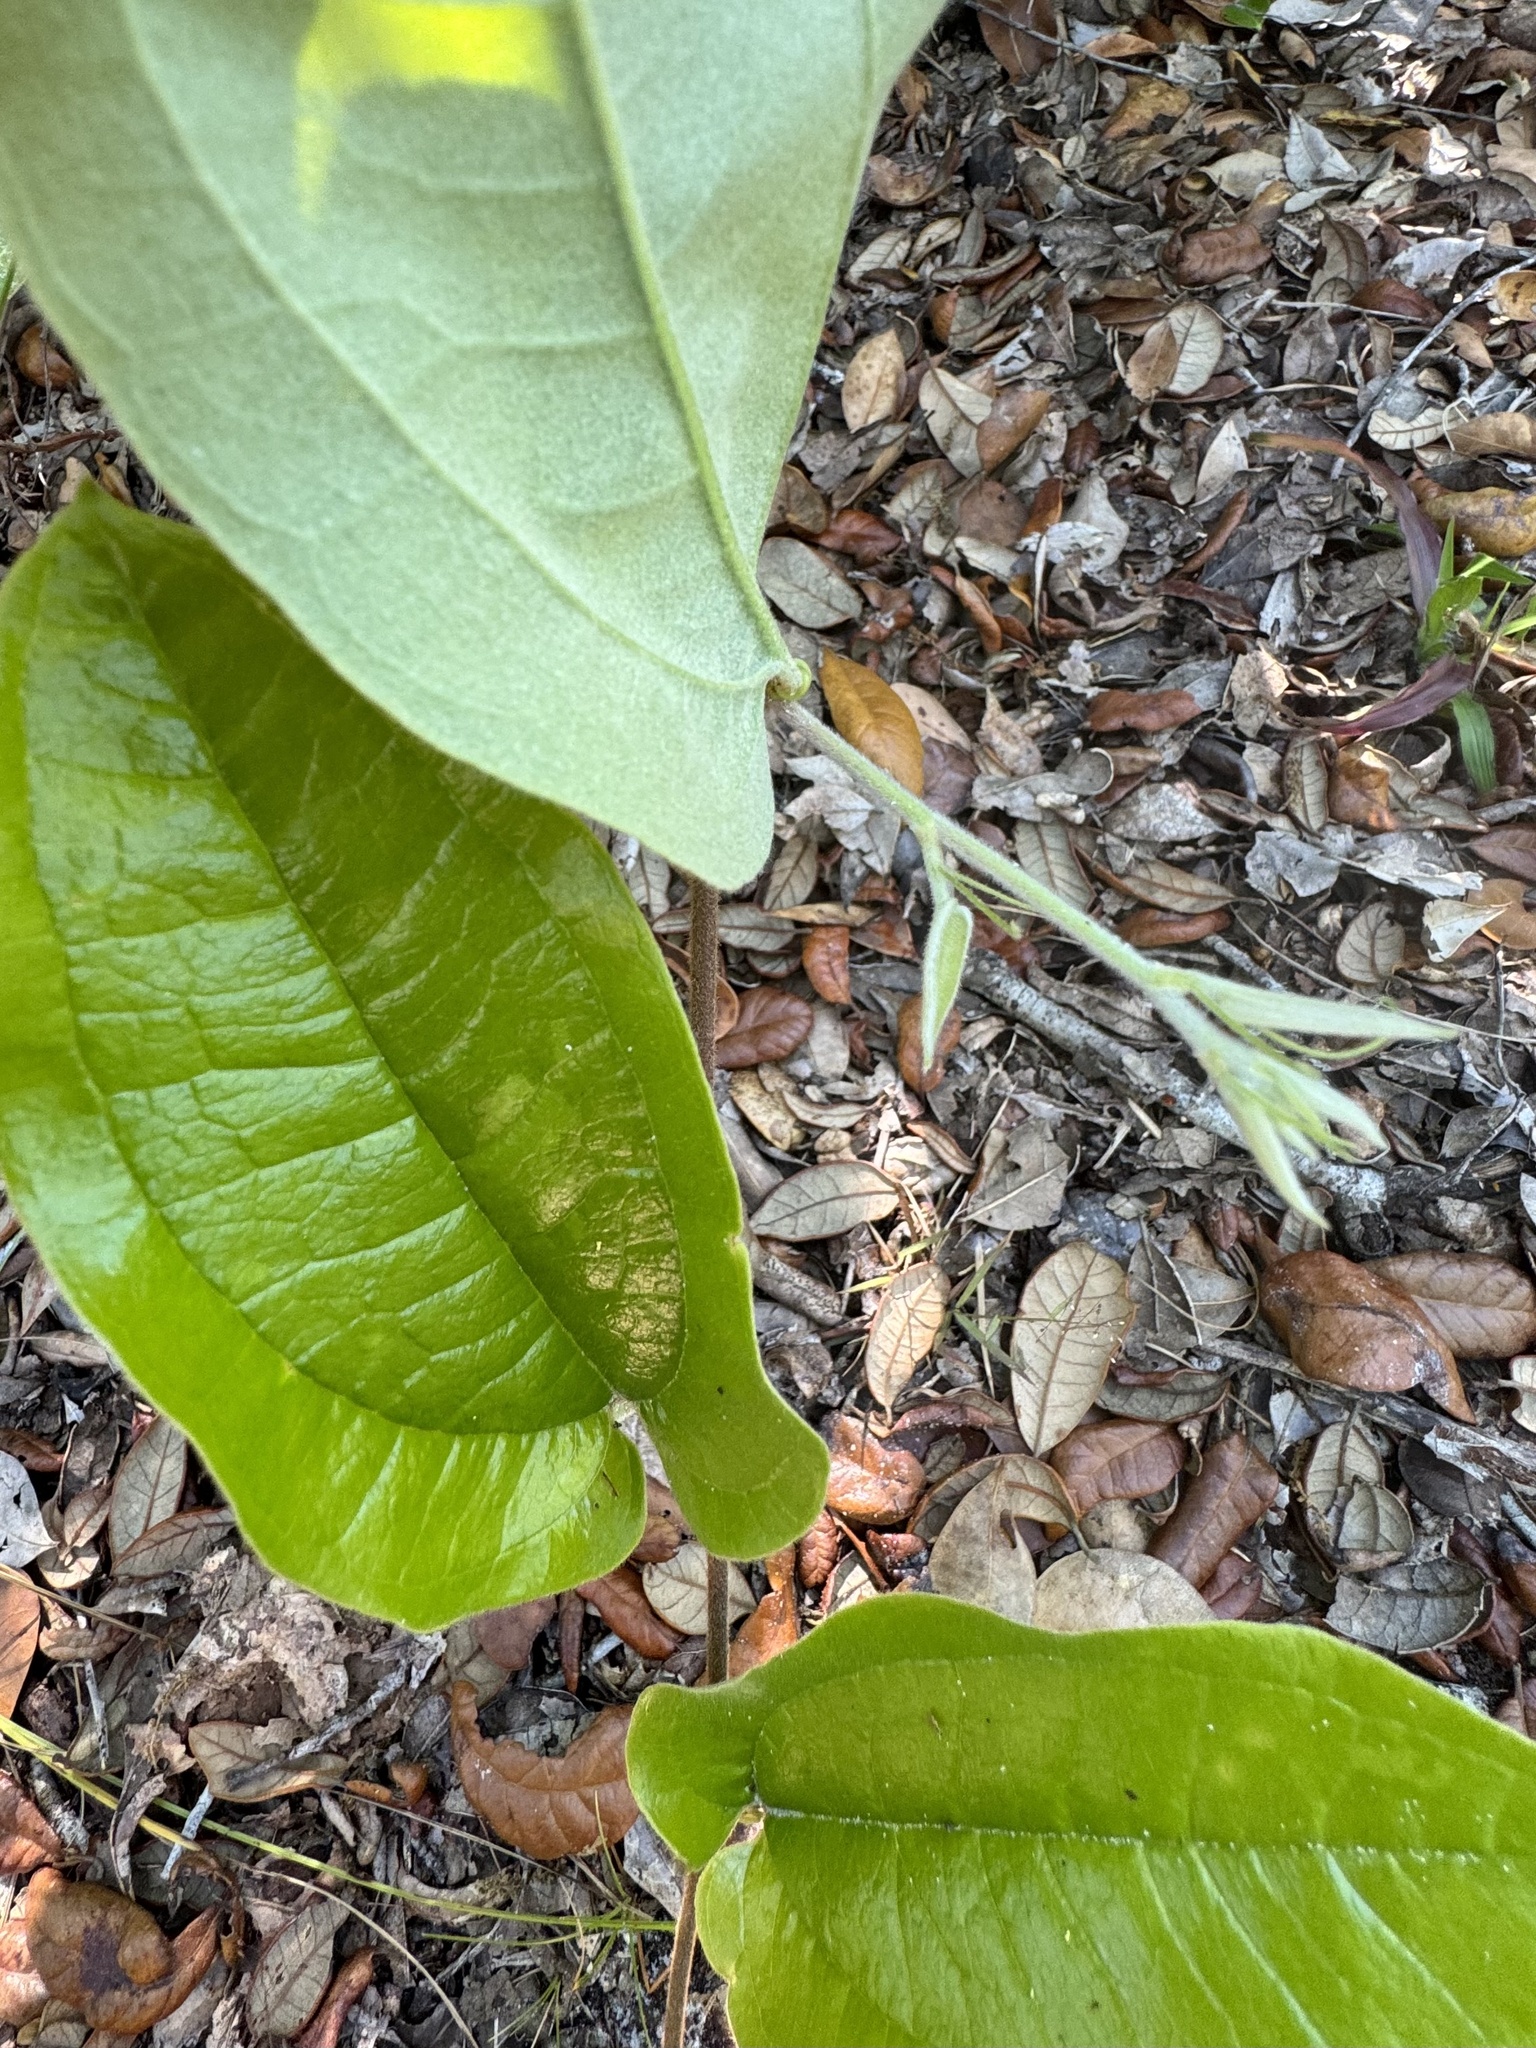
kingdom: Plantae
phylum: Tracheophyta
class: Liliopsida
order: Liliales
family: Smilacaceae
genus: Smilax
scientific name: Smilax pumila
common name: Sarsaparilla-vine
